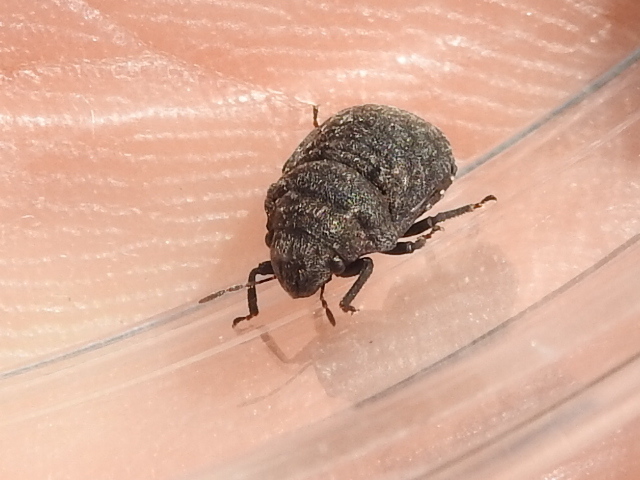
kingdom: Animalia
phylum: Arthropoda
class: Insecta
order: Hemiptera
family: Scutelleridae
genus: Camirus
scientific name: Camirus consocius
